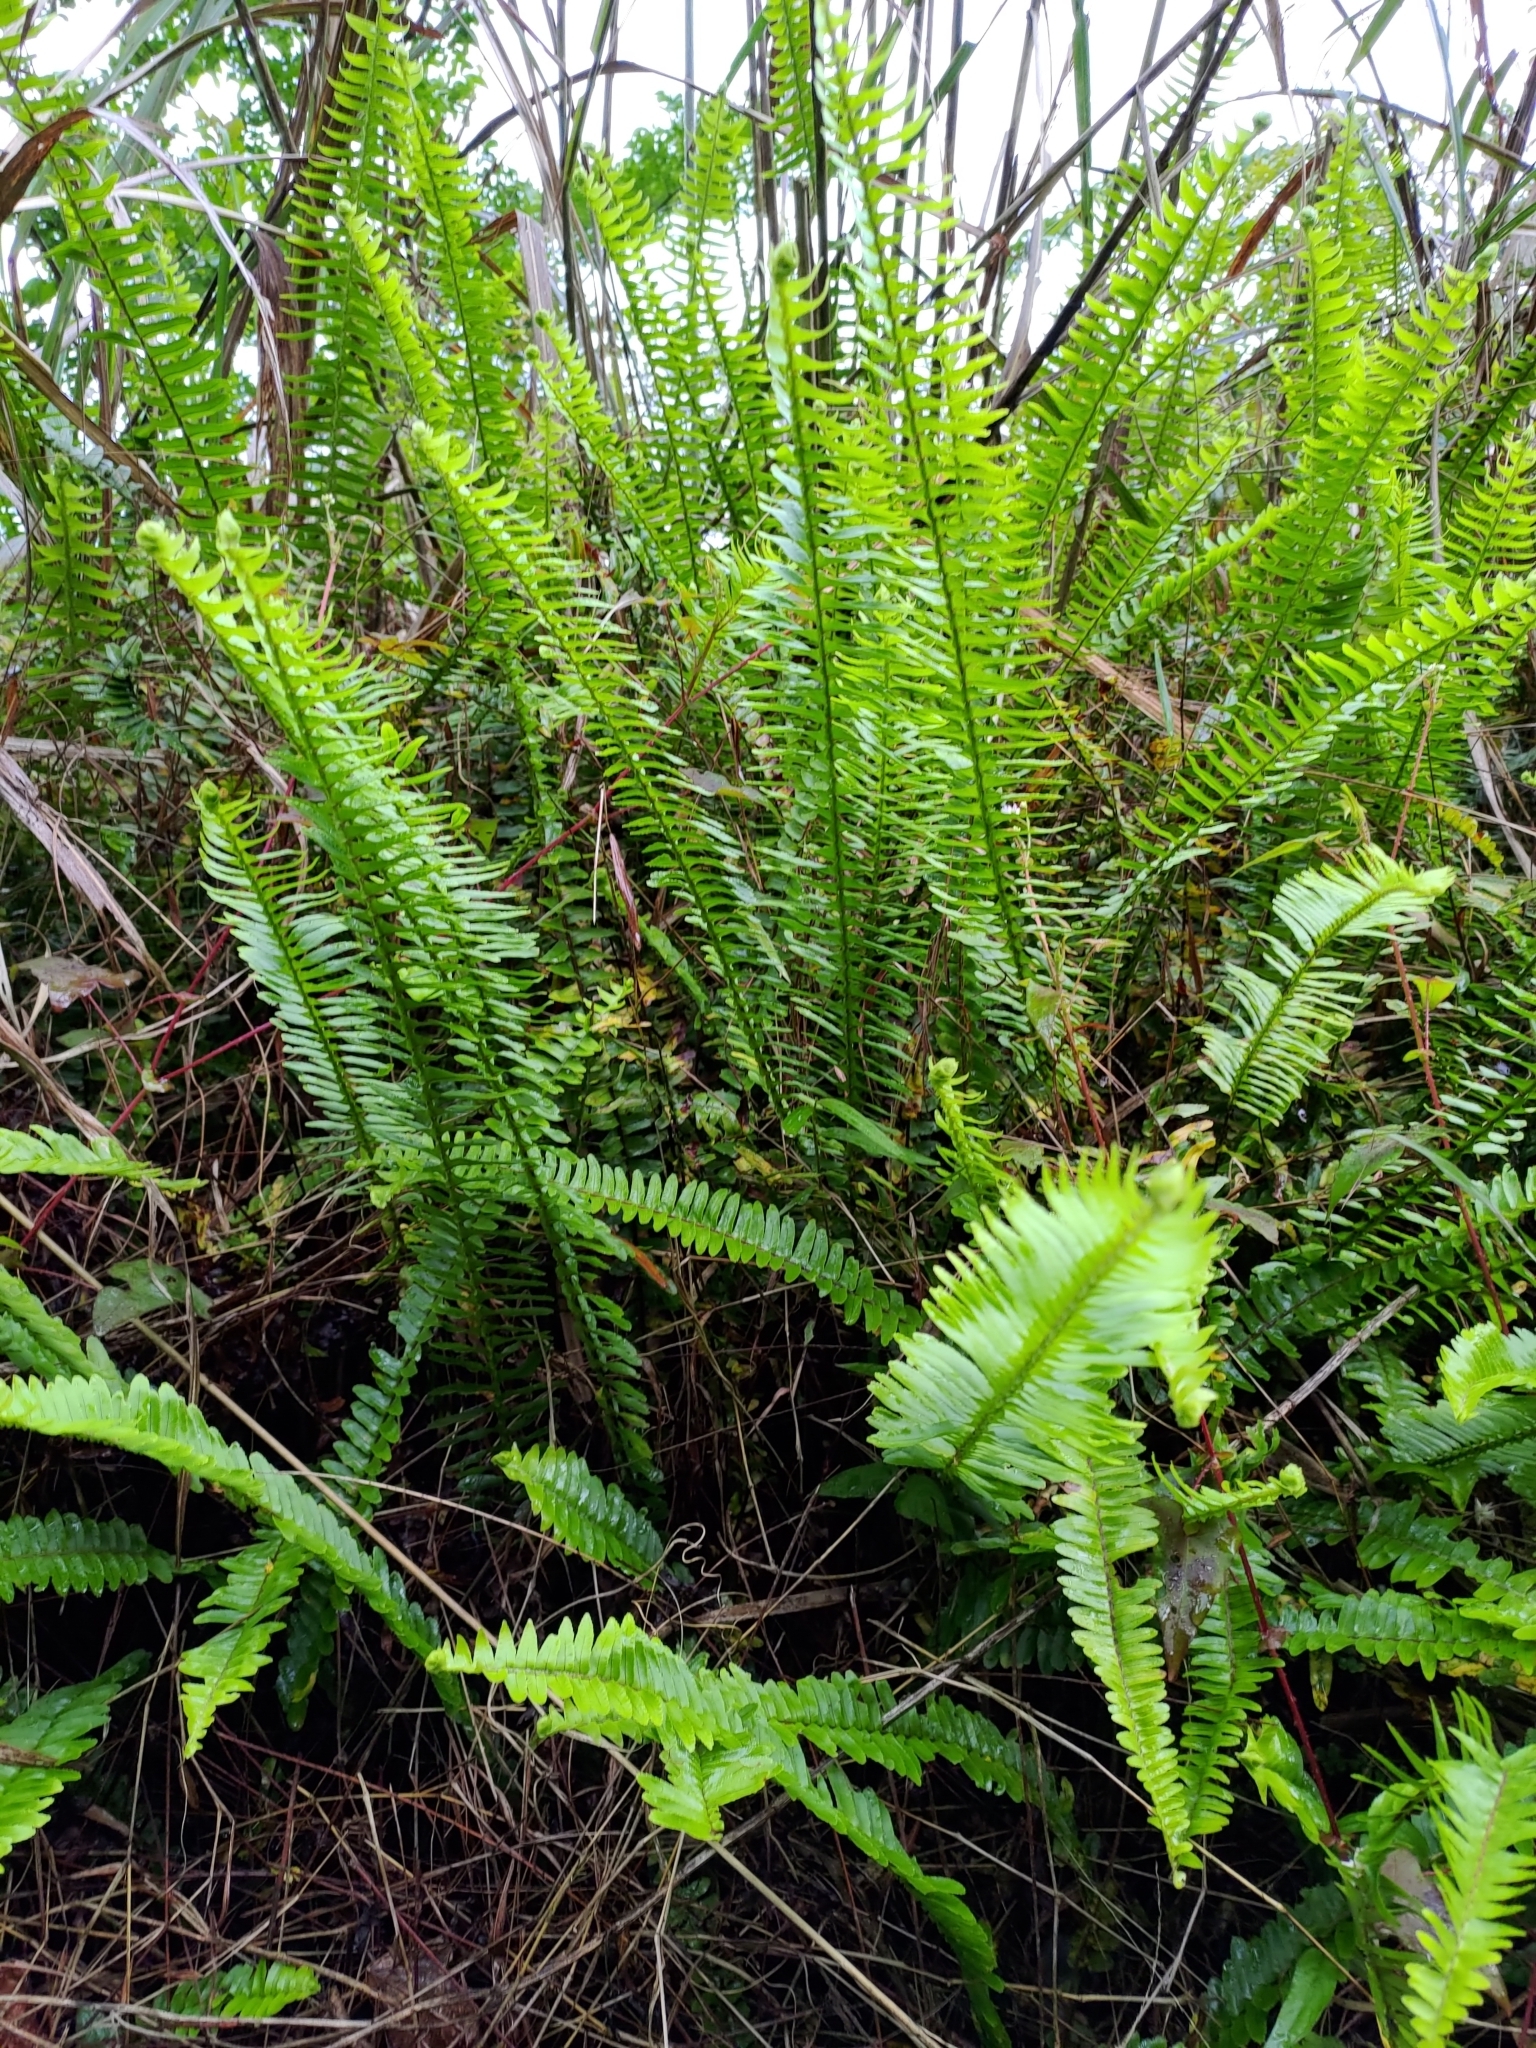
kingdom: Plantae
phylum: Tracheophyta
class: Polypodiopsida
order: Polypodiales
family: Nephrolepidaceae
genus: Nephrolepis
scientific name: Nephrolepis cordifolia
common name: Narrow swordfern
